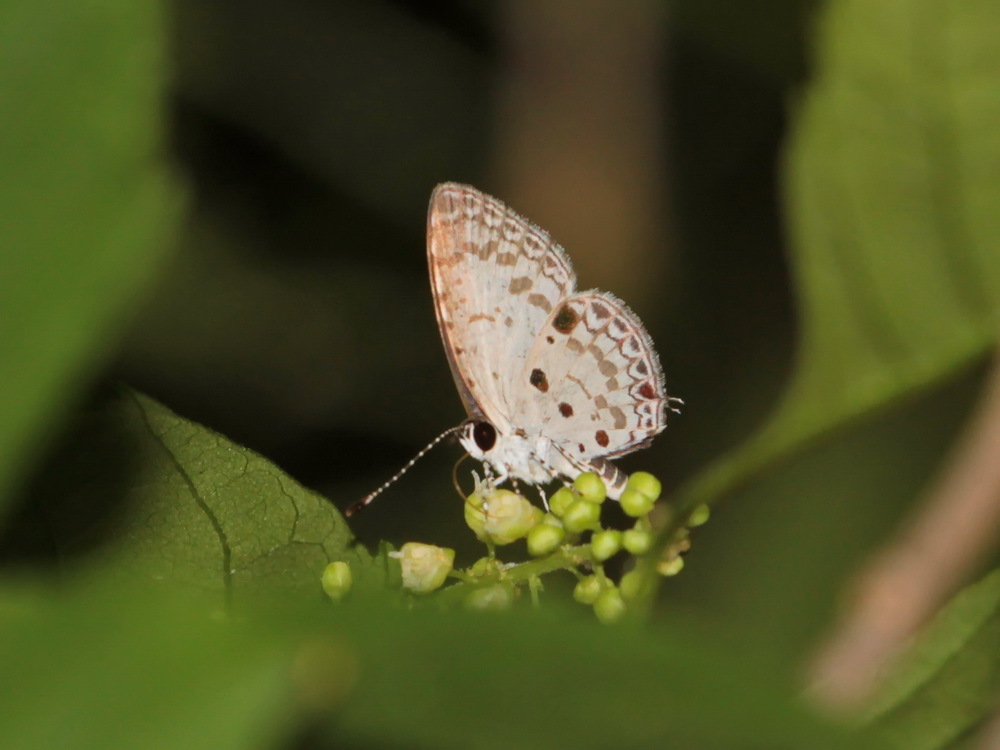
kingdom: Animalia
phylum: Arthropoda
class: Insecta
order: Lepidoptera
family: Lycaenidae
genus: Megisba
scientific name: Megisba malaya
